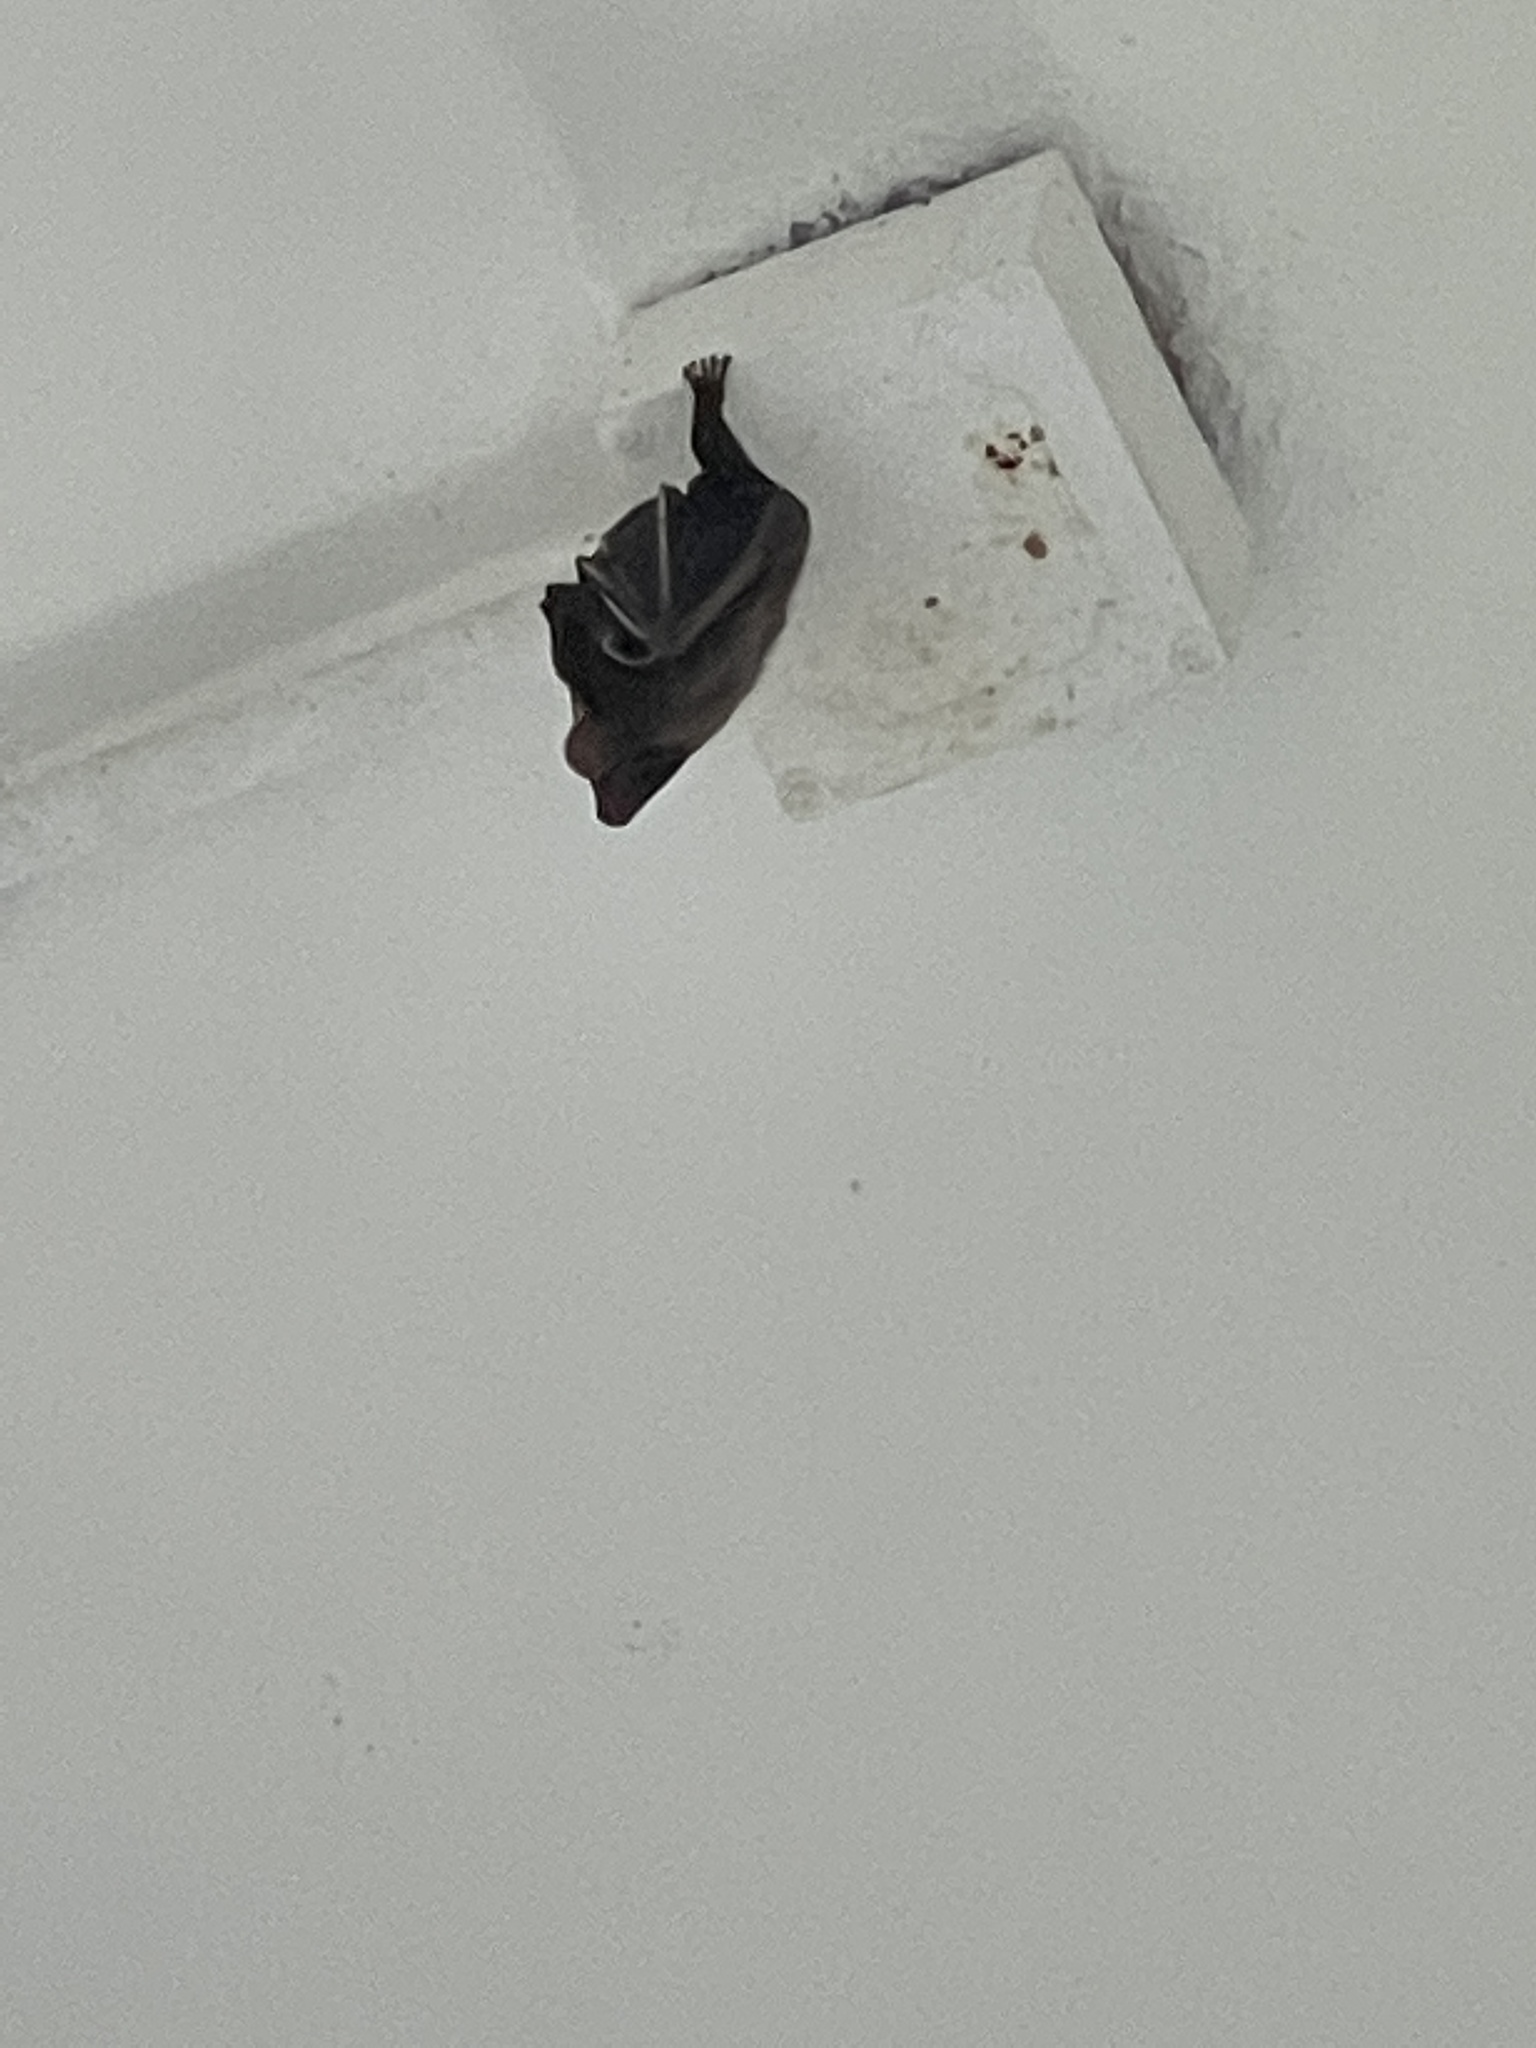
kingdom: Animalia
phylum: Chordata
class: Mammalia
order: Chiroptera
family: Pteropodidae
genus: Cynopterus
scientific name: Cynopterus sphinx
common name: Greater short-nosed fruit bat
